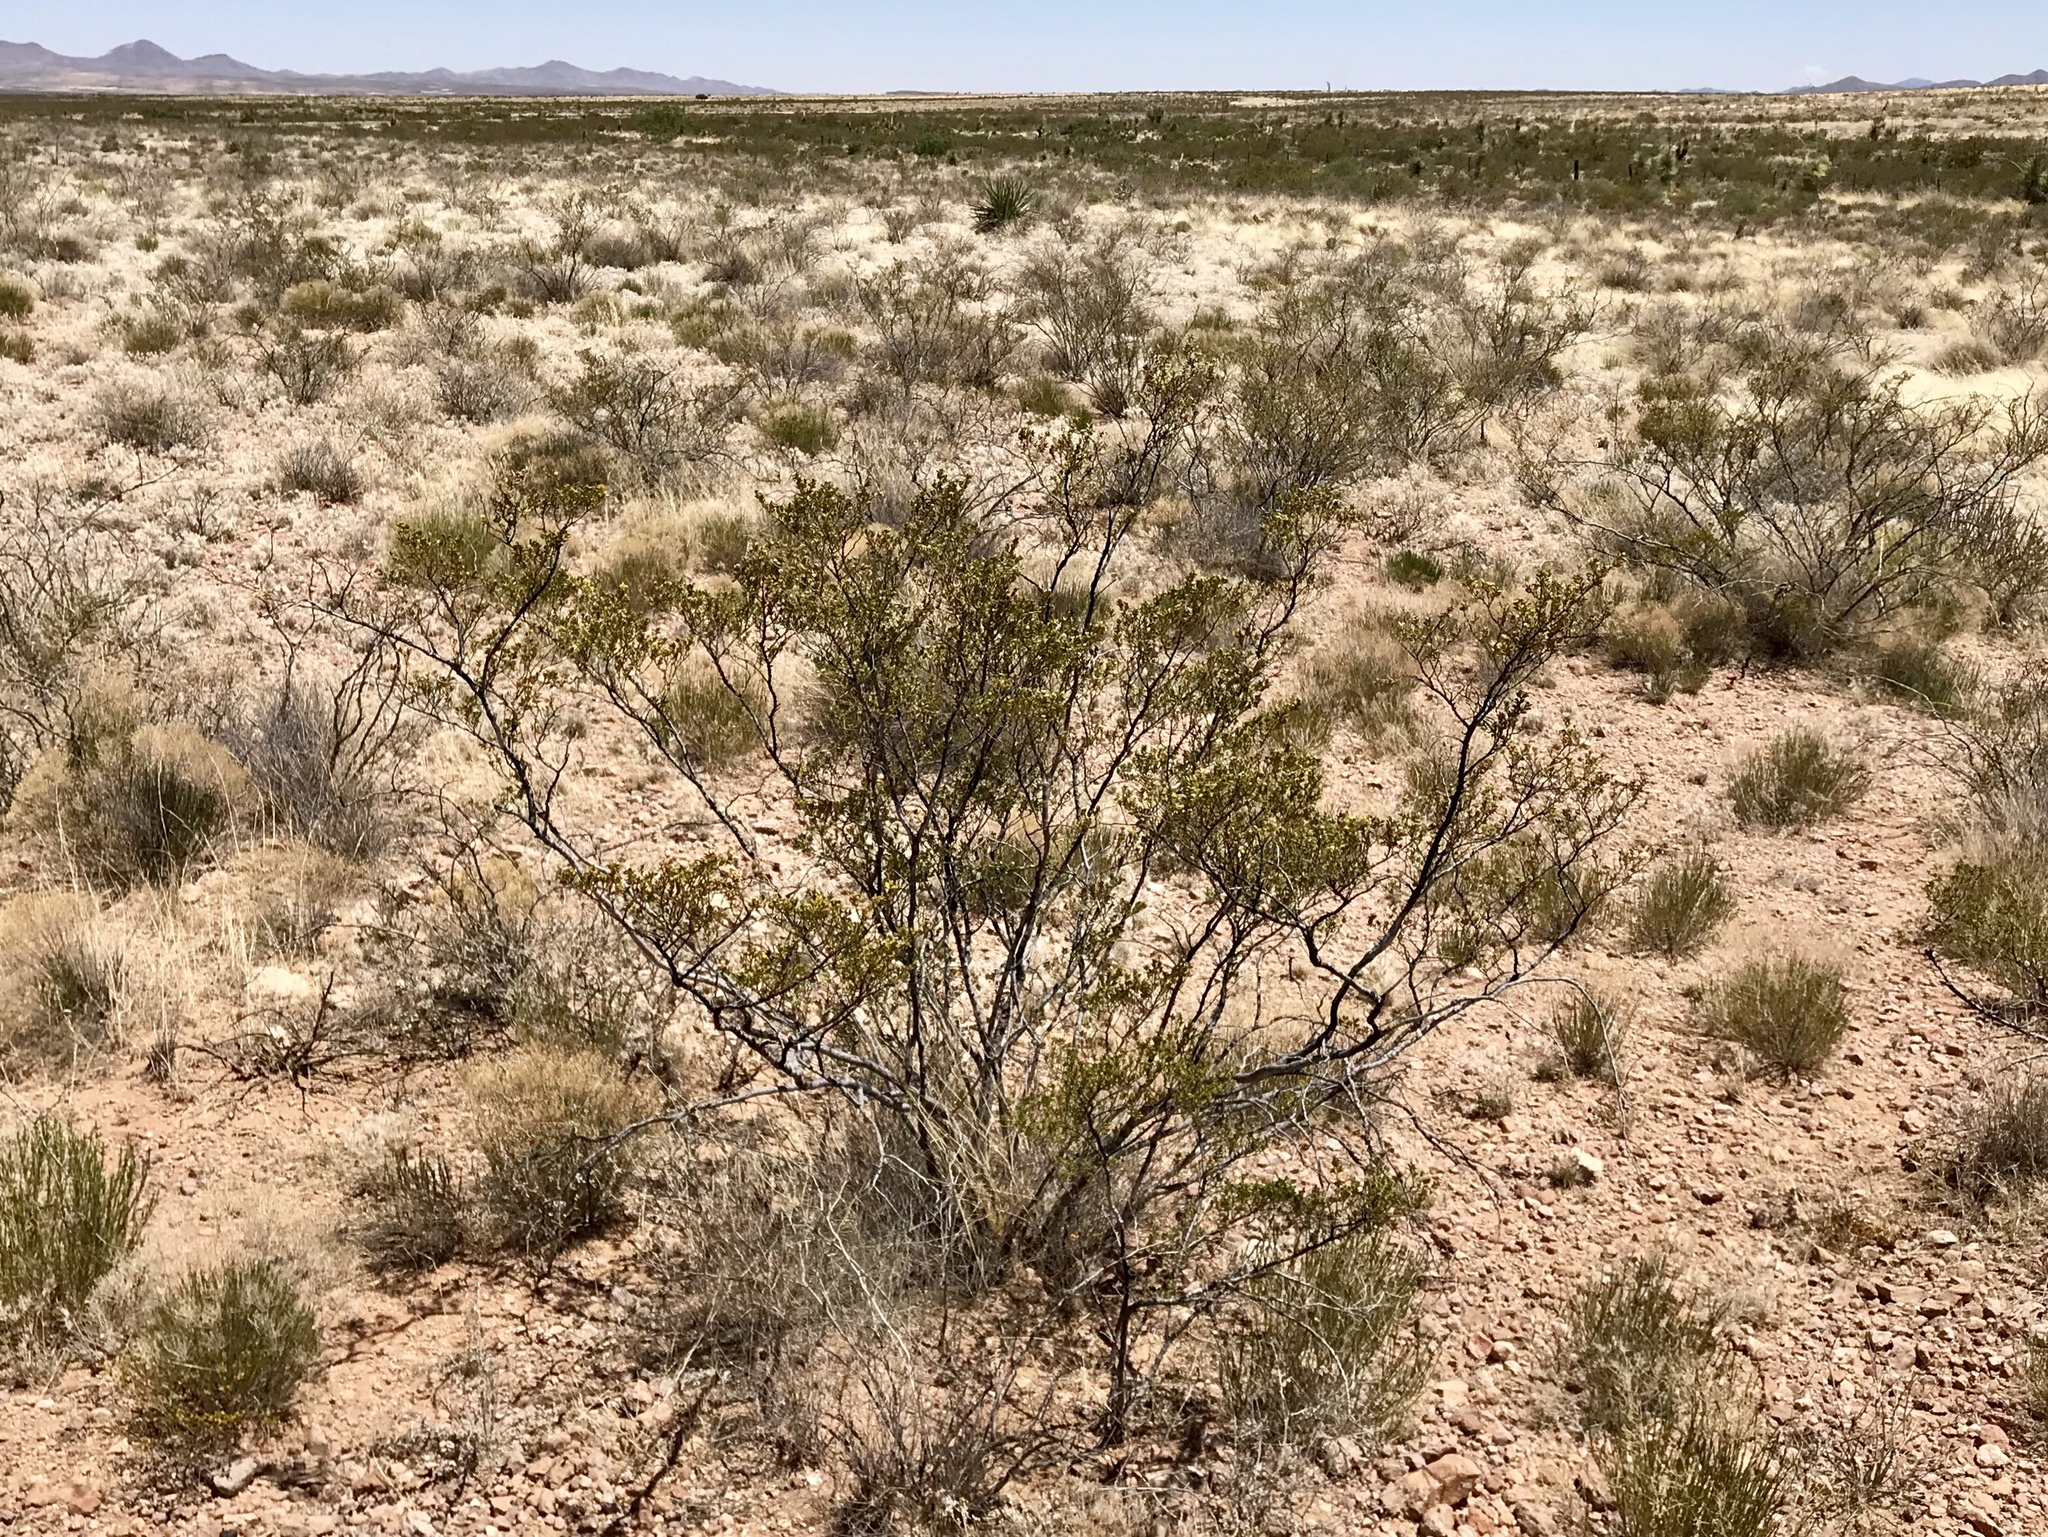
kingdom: Plantae
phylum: Tracheophyta
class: Magnoliopsida
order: Zygophyllales
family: Zygophyllaceae
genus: Larrea
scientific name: Larrea tridentata
